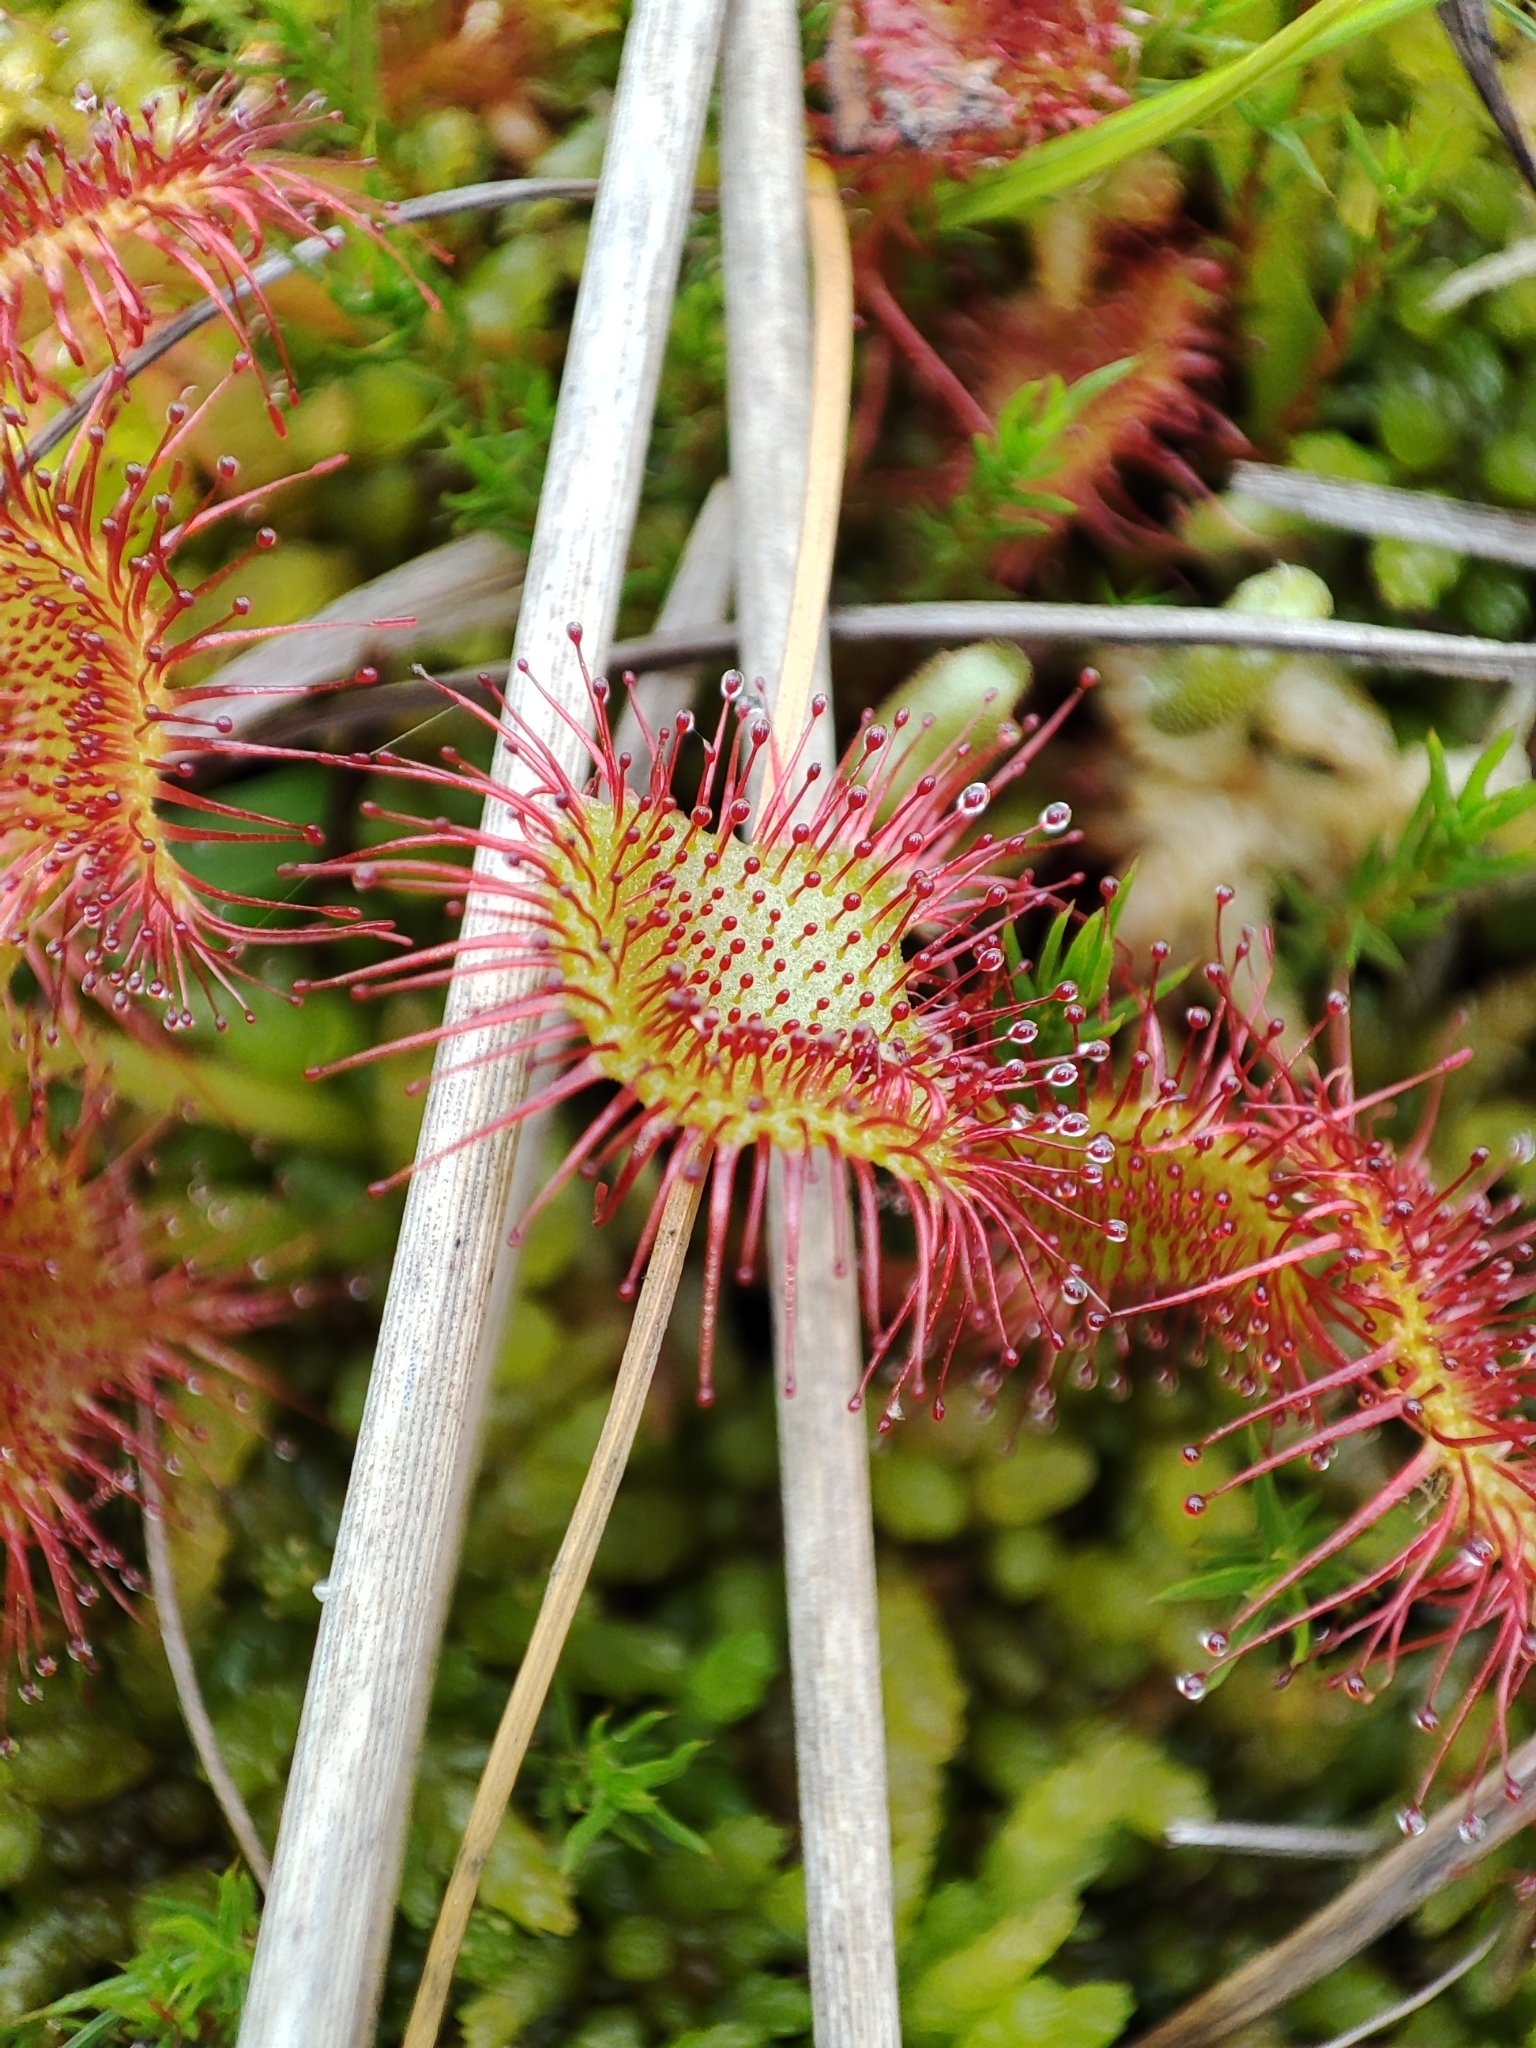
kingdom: Plantae
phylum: Tracheophyta
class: Magnoliopsida
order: Caryophyllales
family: Droseraceae
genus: Drosera
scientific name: Drosera rotundifolia
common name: Round-leaved sundew
